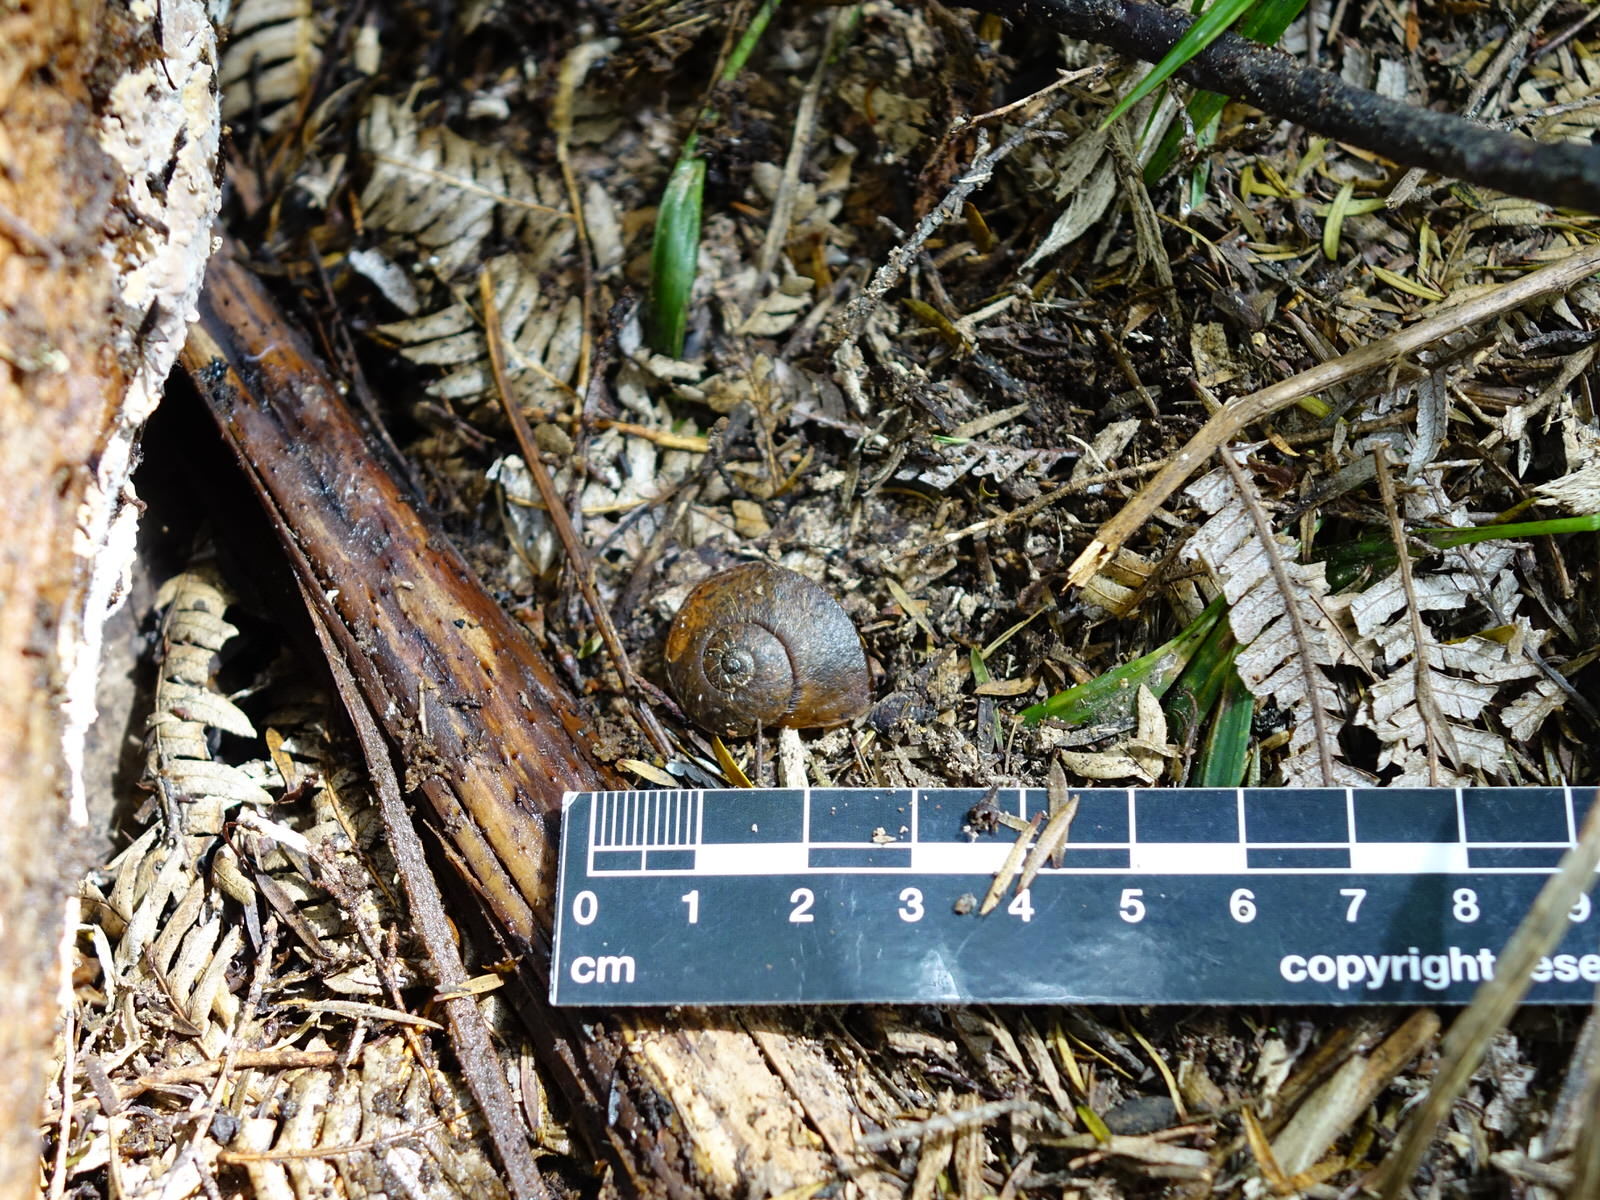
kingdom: Animalia
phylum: Mollusca
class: Gastropoda
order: Stylommatophora
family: Rhytididae
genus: Amborhytida
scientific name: Amborhytida dunniae
